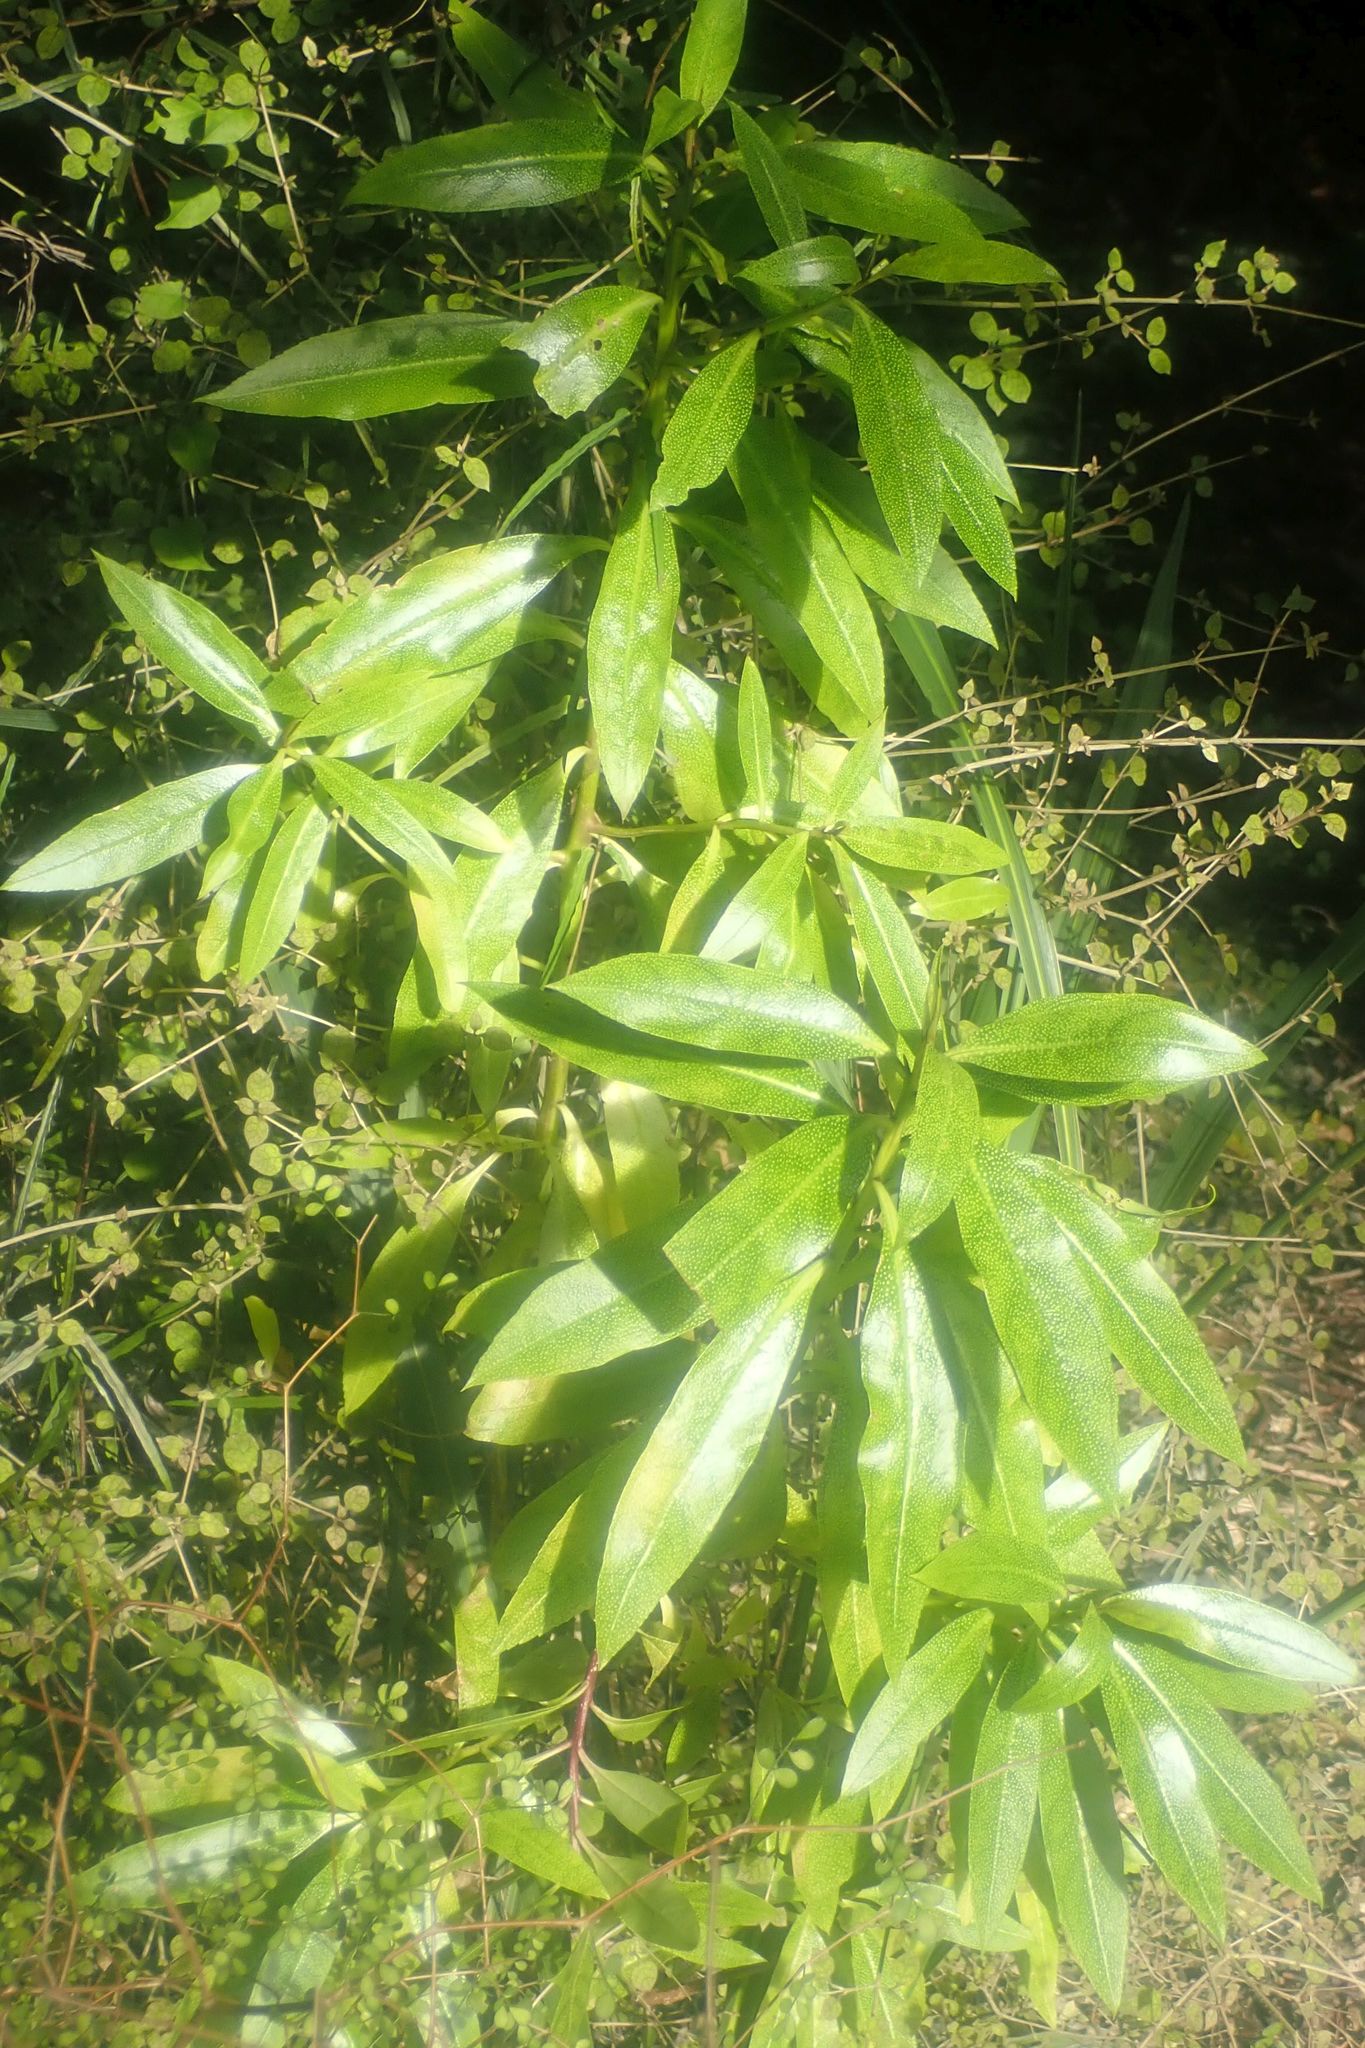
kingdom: Plantae
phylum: Tracheophyta
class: Magnoliopsida
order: Malpighiales
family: Violaceae
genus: Melicytus
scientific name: Melicytus lanceolatus
